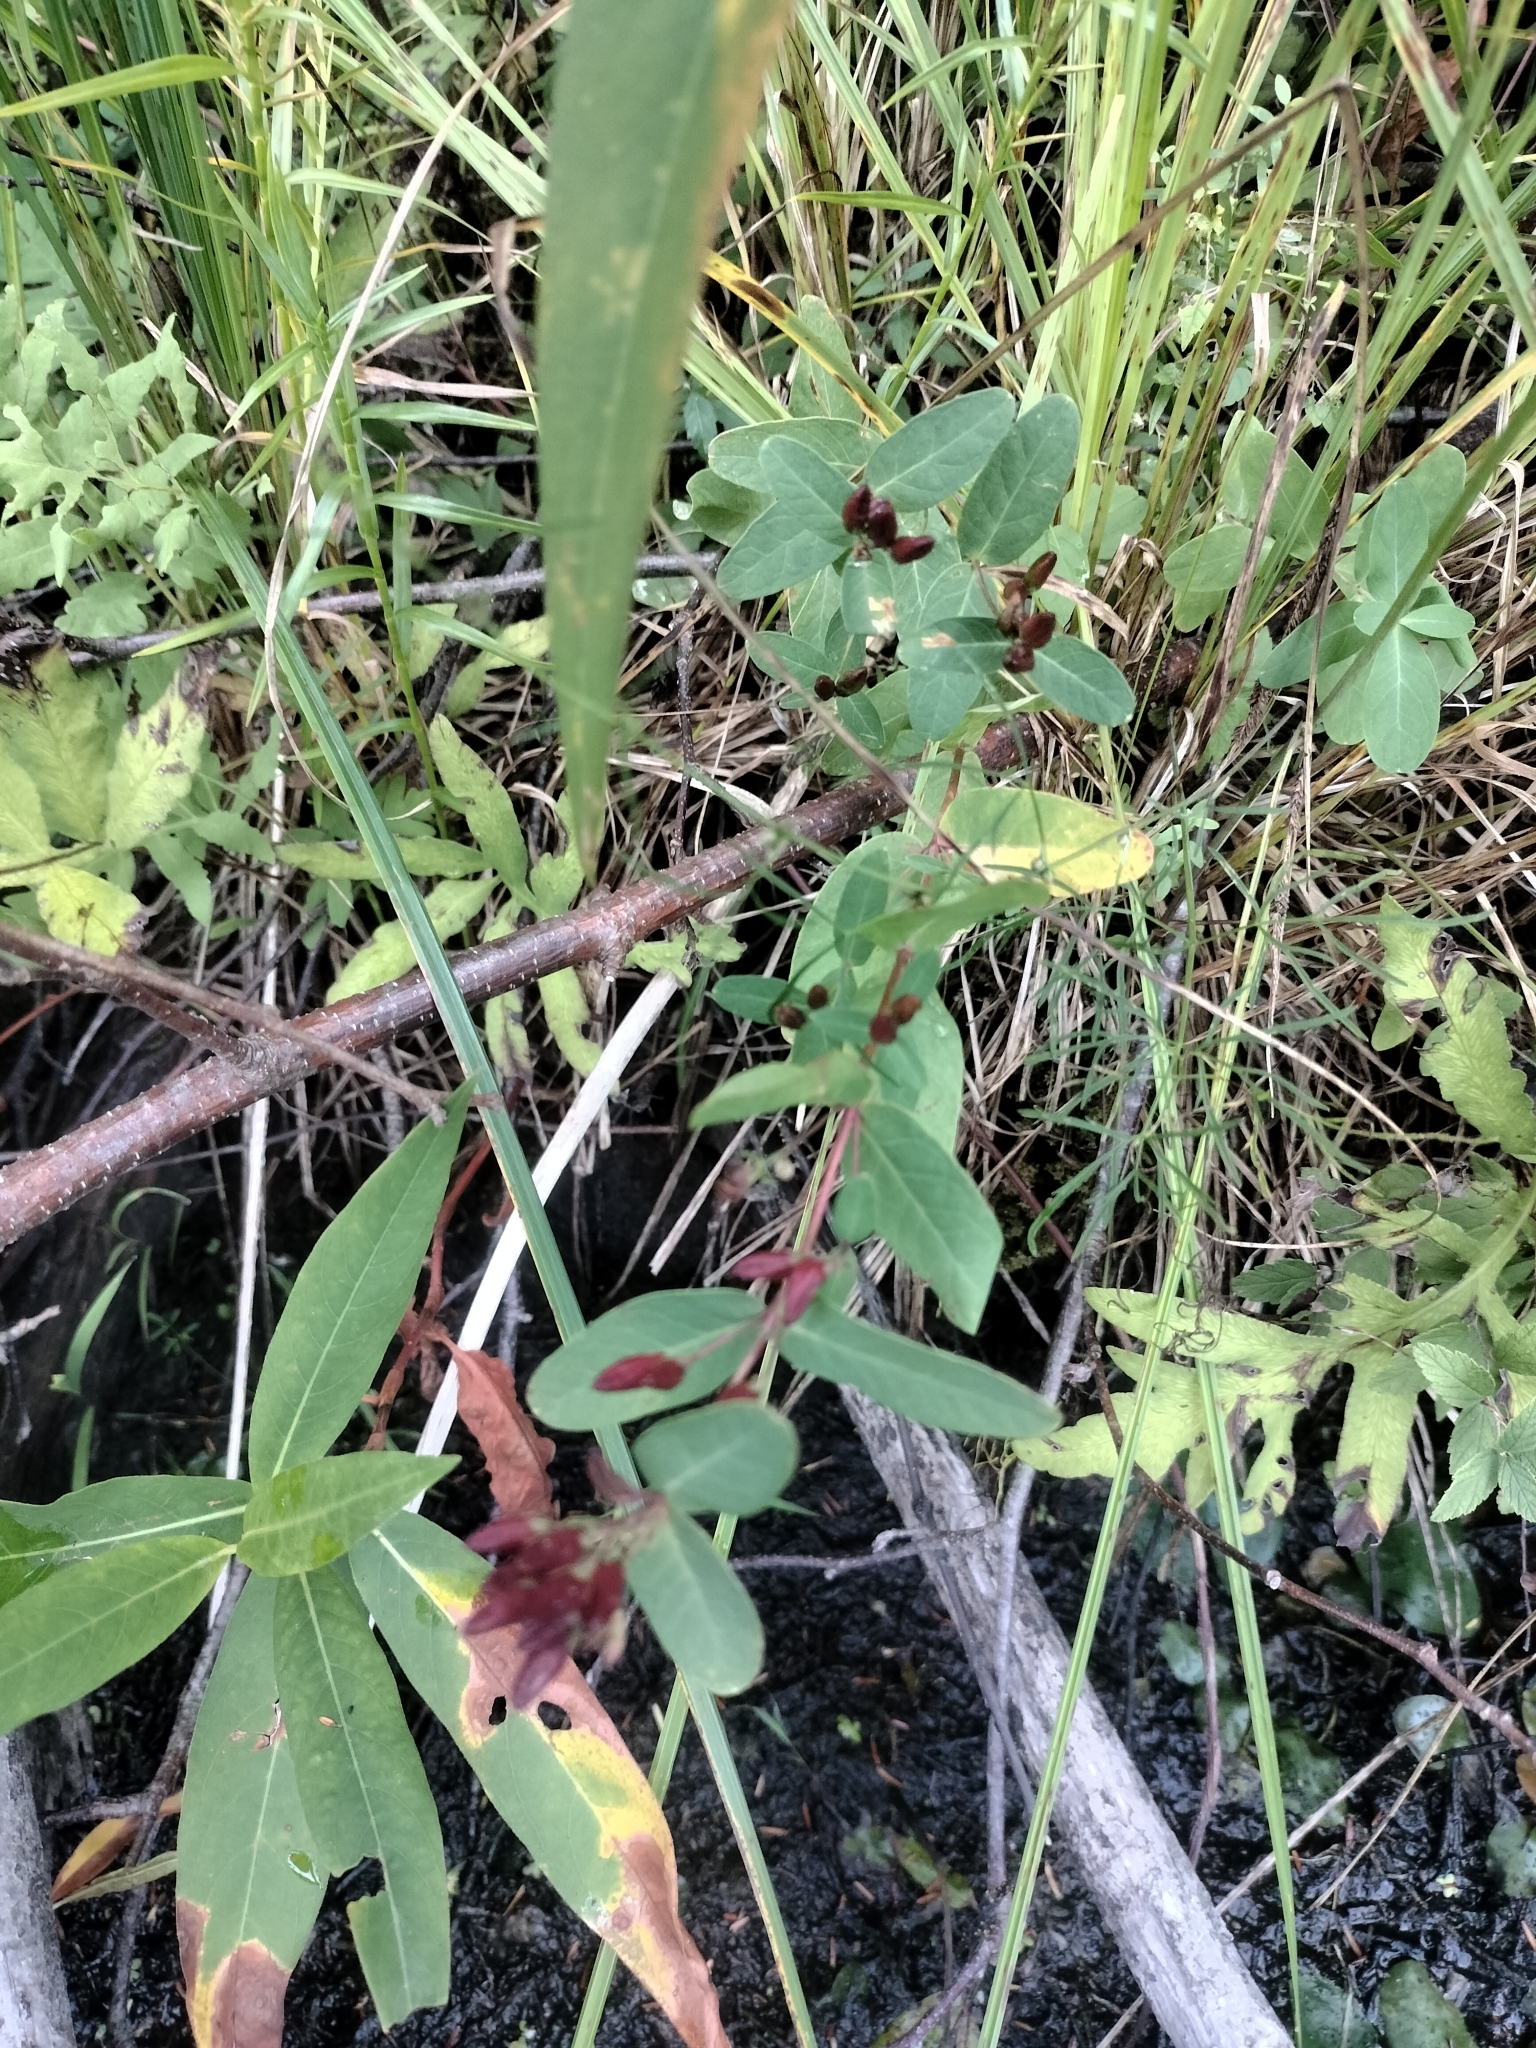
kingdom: Plantae
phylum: Tracheophyta
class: Magnoliopsida
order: Malpighiales
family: Hypericaceae
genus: Triadenum
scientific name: Triadenum fraseri
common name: Fraser's marsh st. johnswort
